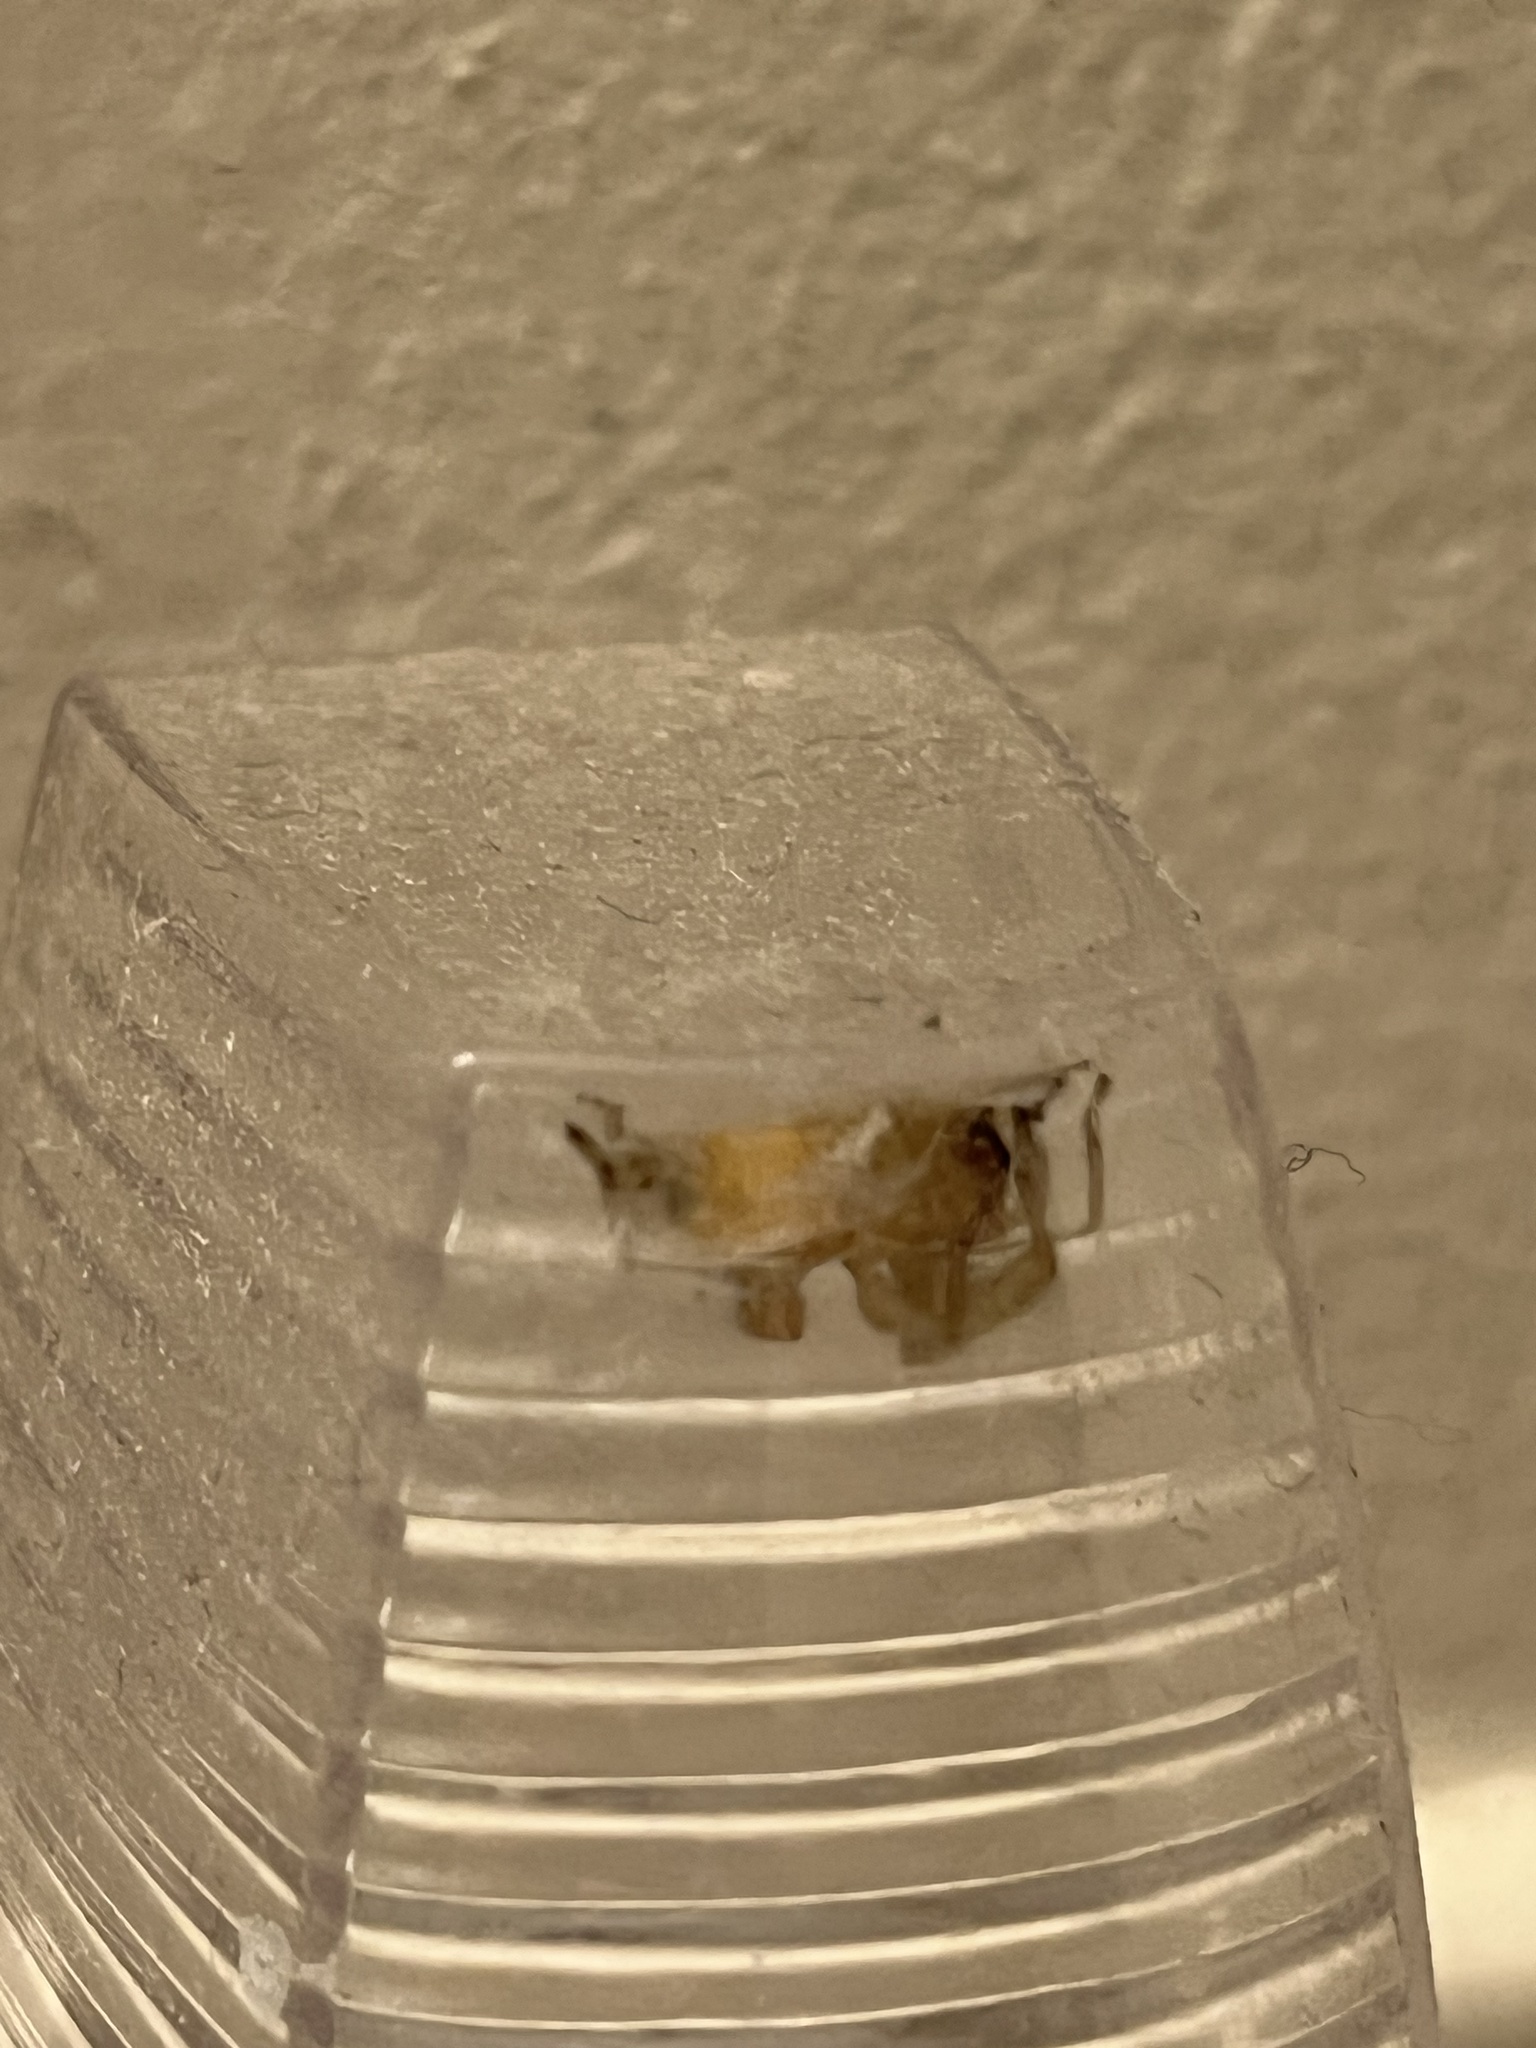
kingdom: Animalia
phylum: Arthropoda
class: Arachnida
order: Araneae
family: Cheiracanthiidae
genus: Cheiracanthium
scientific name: Cheiracanthium mildei
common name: Northern yellow sac spider
